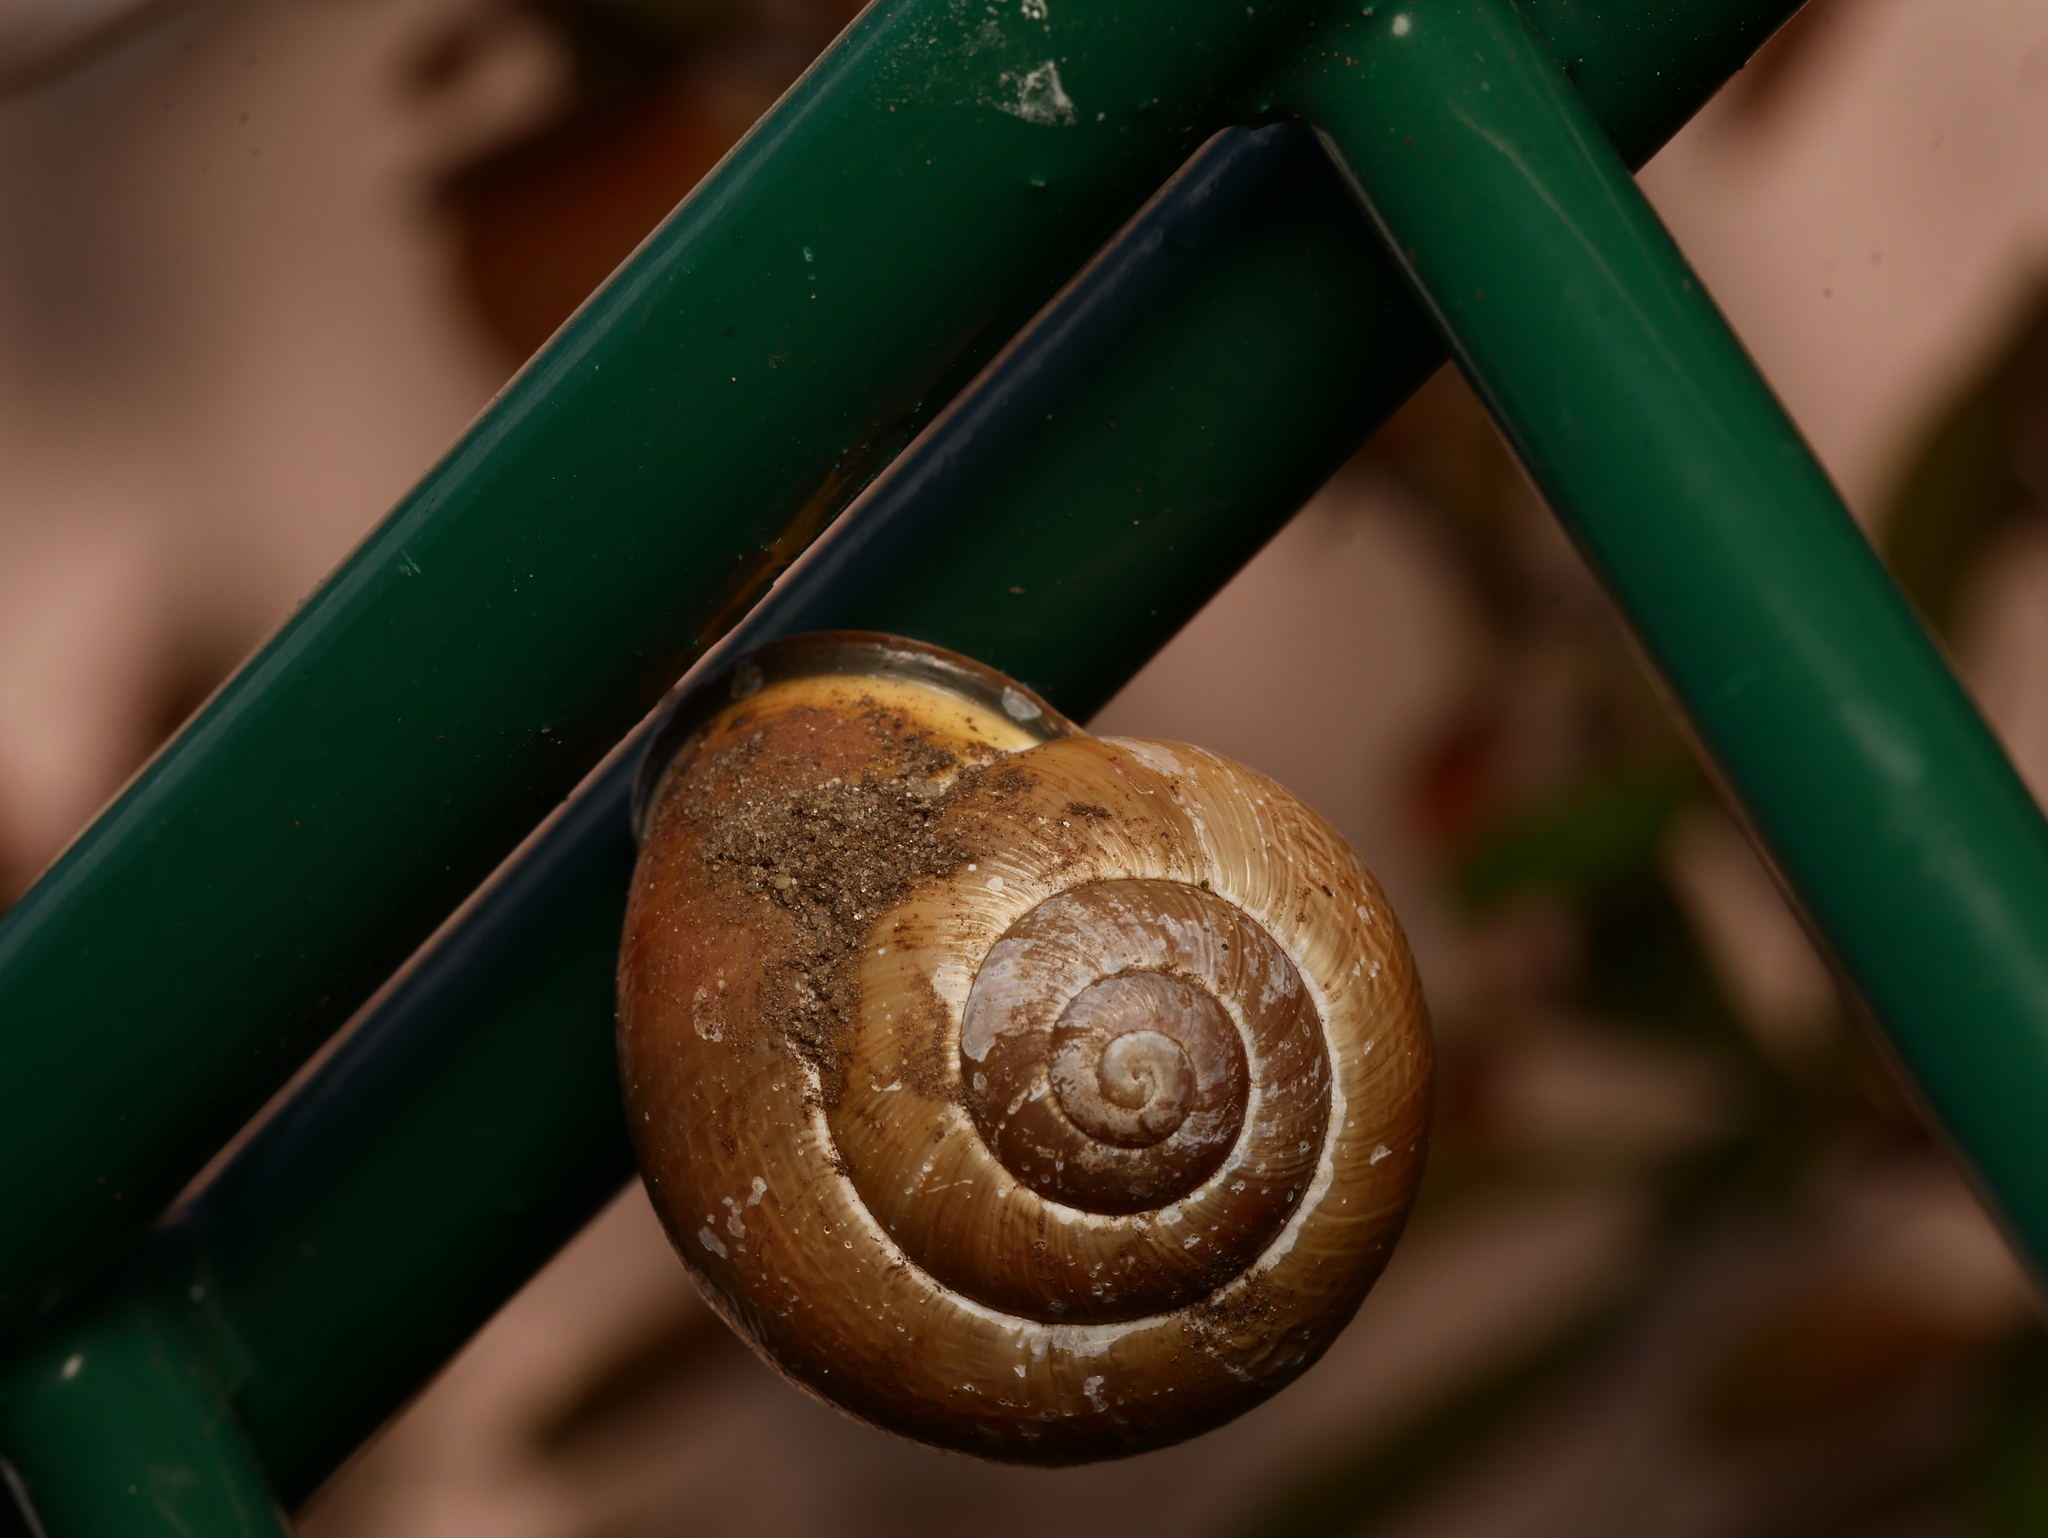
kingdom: Animalia
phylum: Mollusca
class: Gastropoda
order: Stylommatophora
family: Helicidae
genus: Cepaea
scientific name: Cepaea nemoralis
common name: Grovesnail
